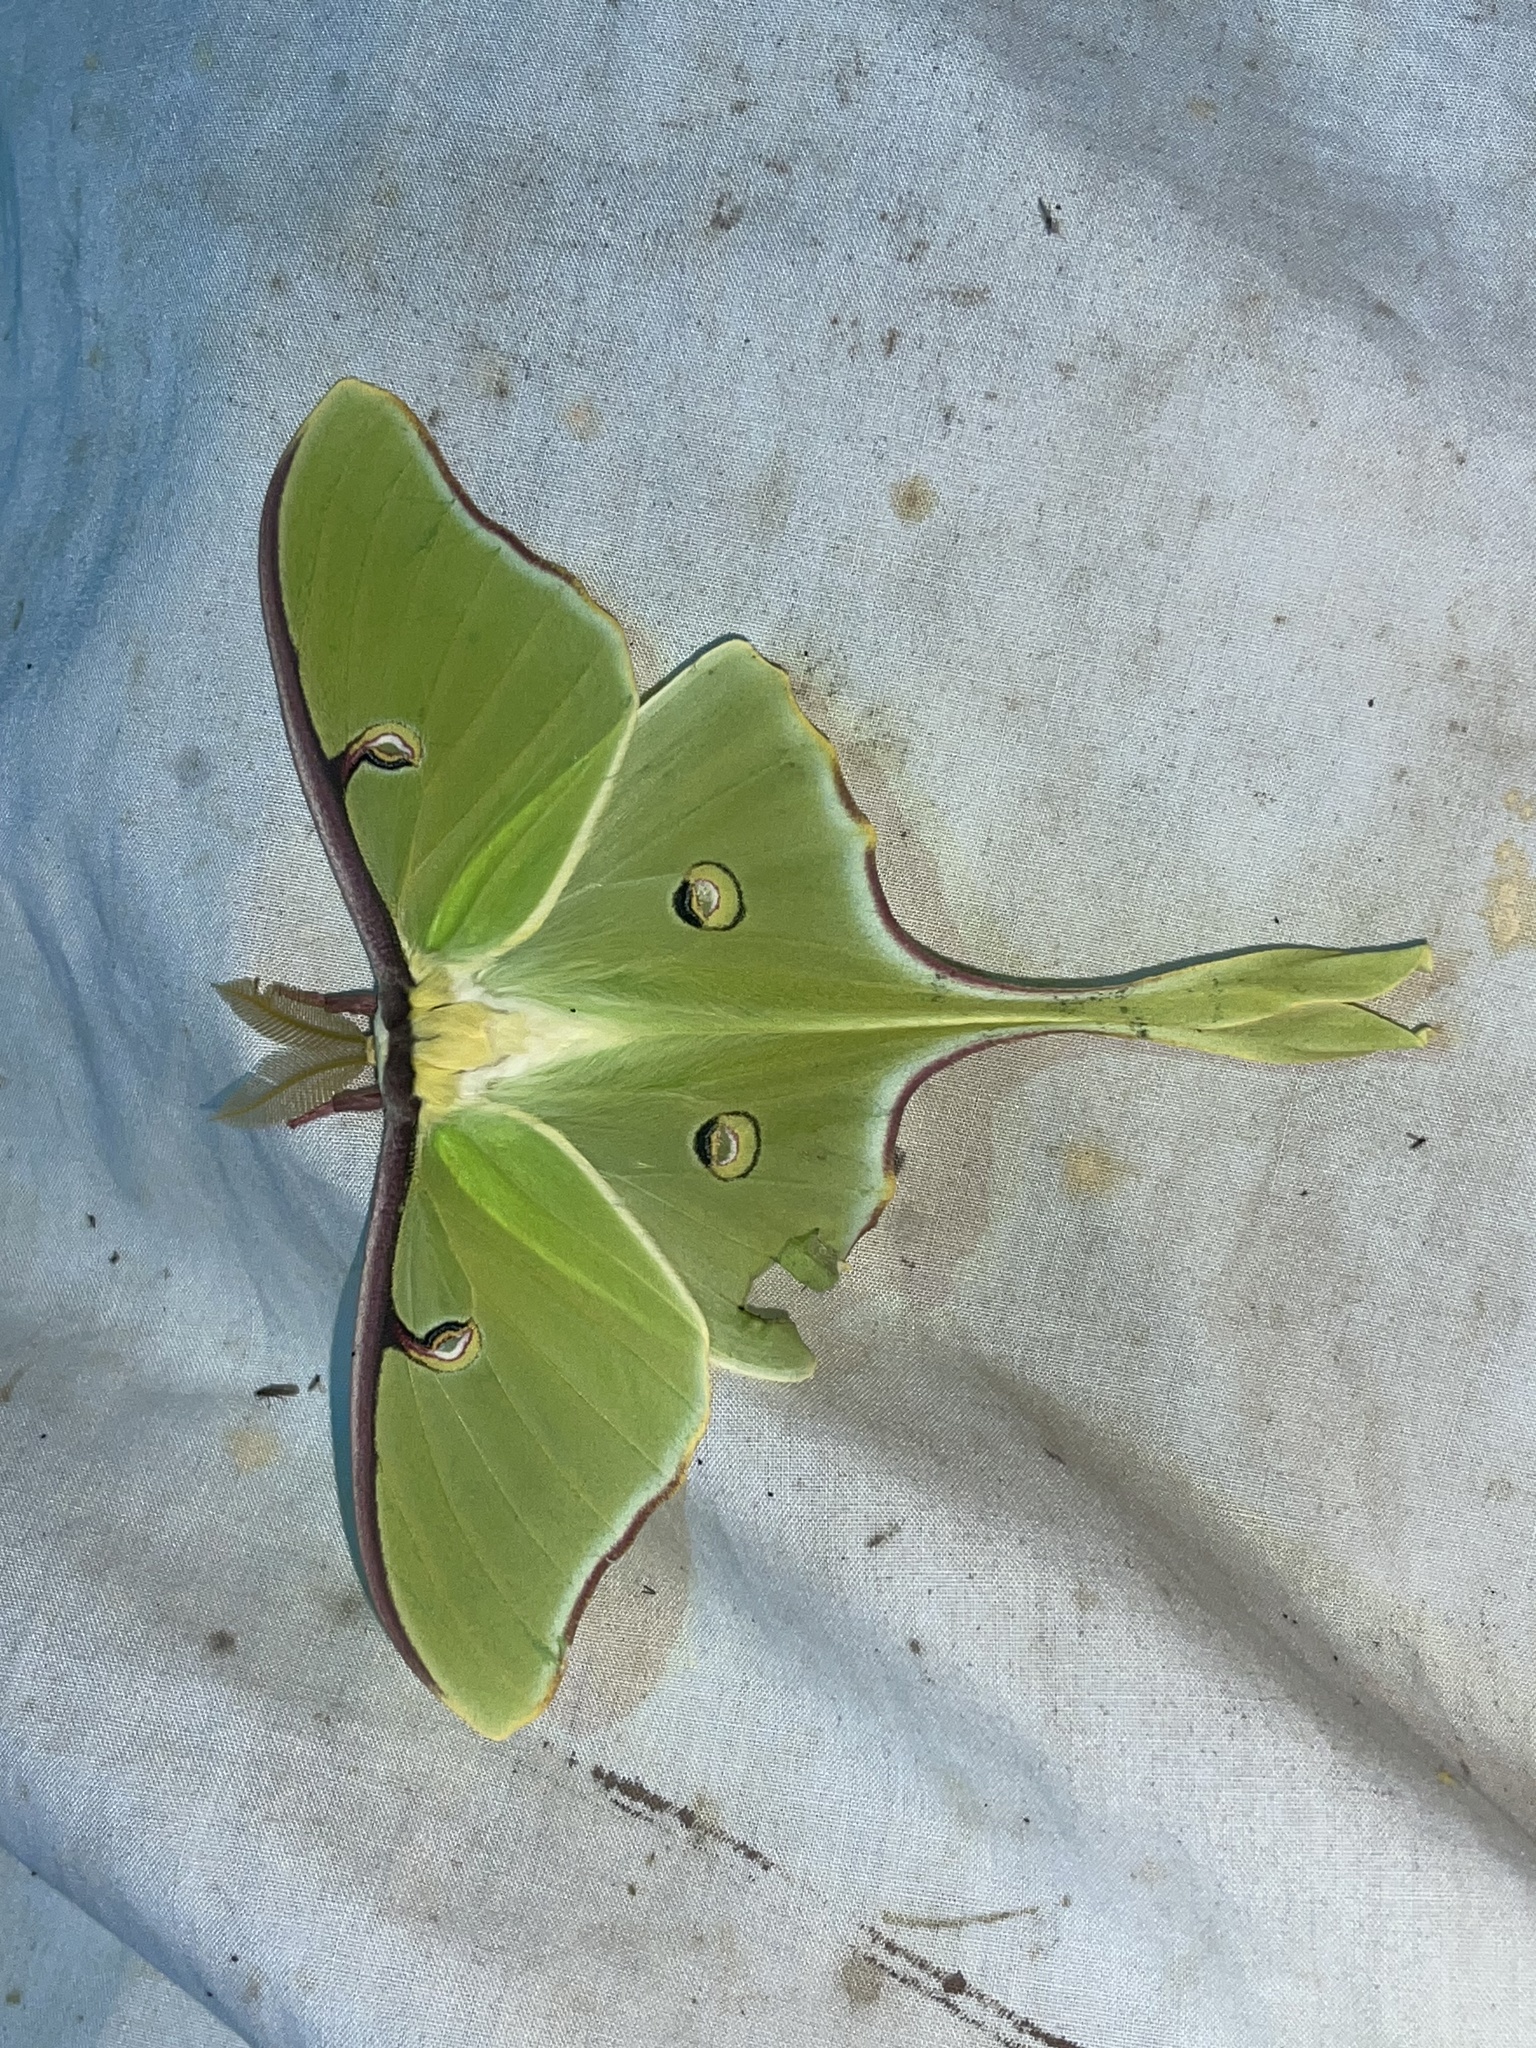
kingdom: Animalia
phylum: Arthropoda
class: Insecta
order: Lepidoptera
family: Saturniidae
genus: Actias
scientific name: Actias luna
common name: Luna moth
